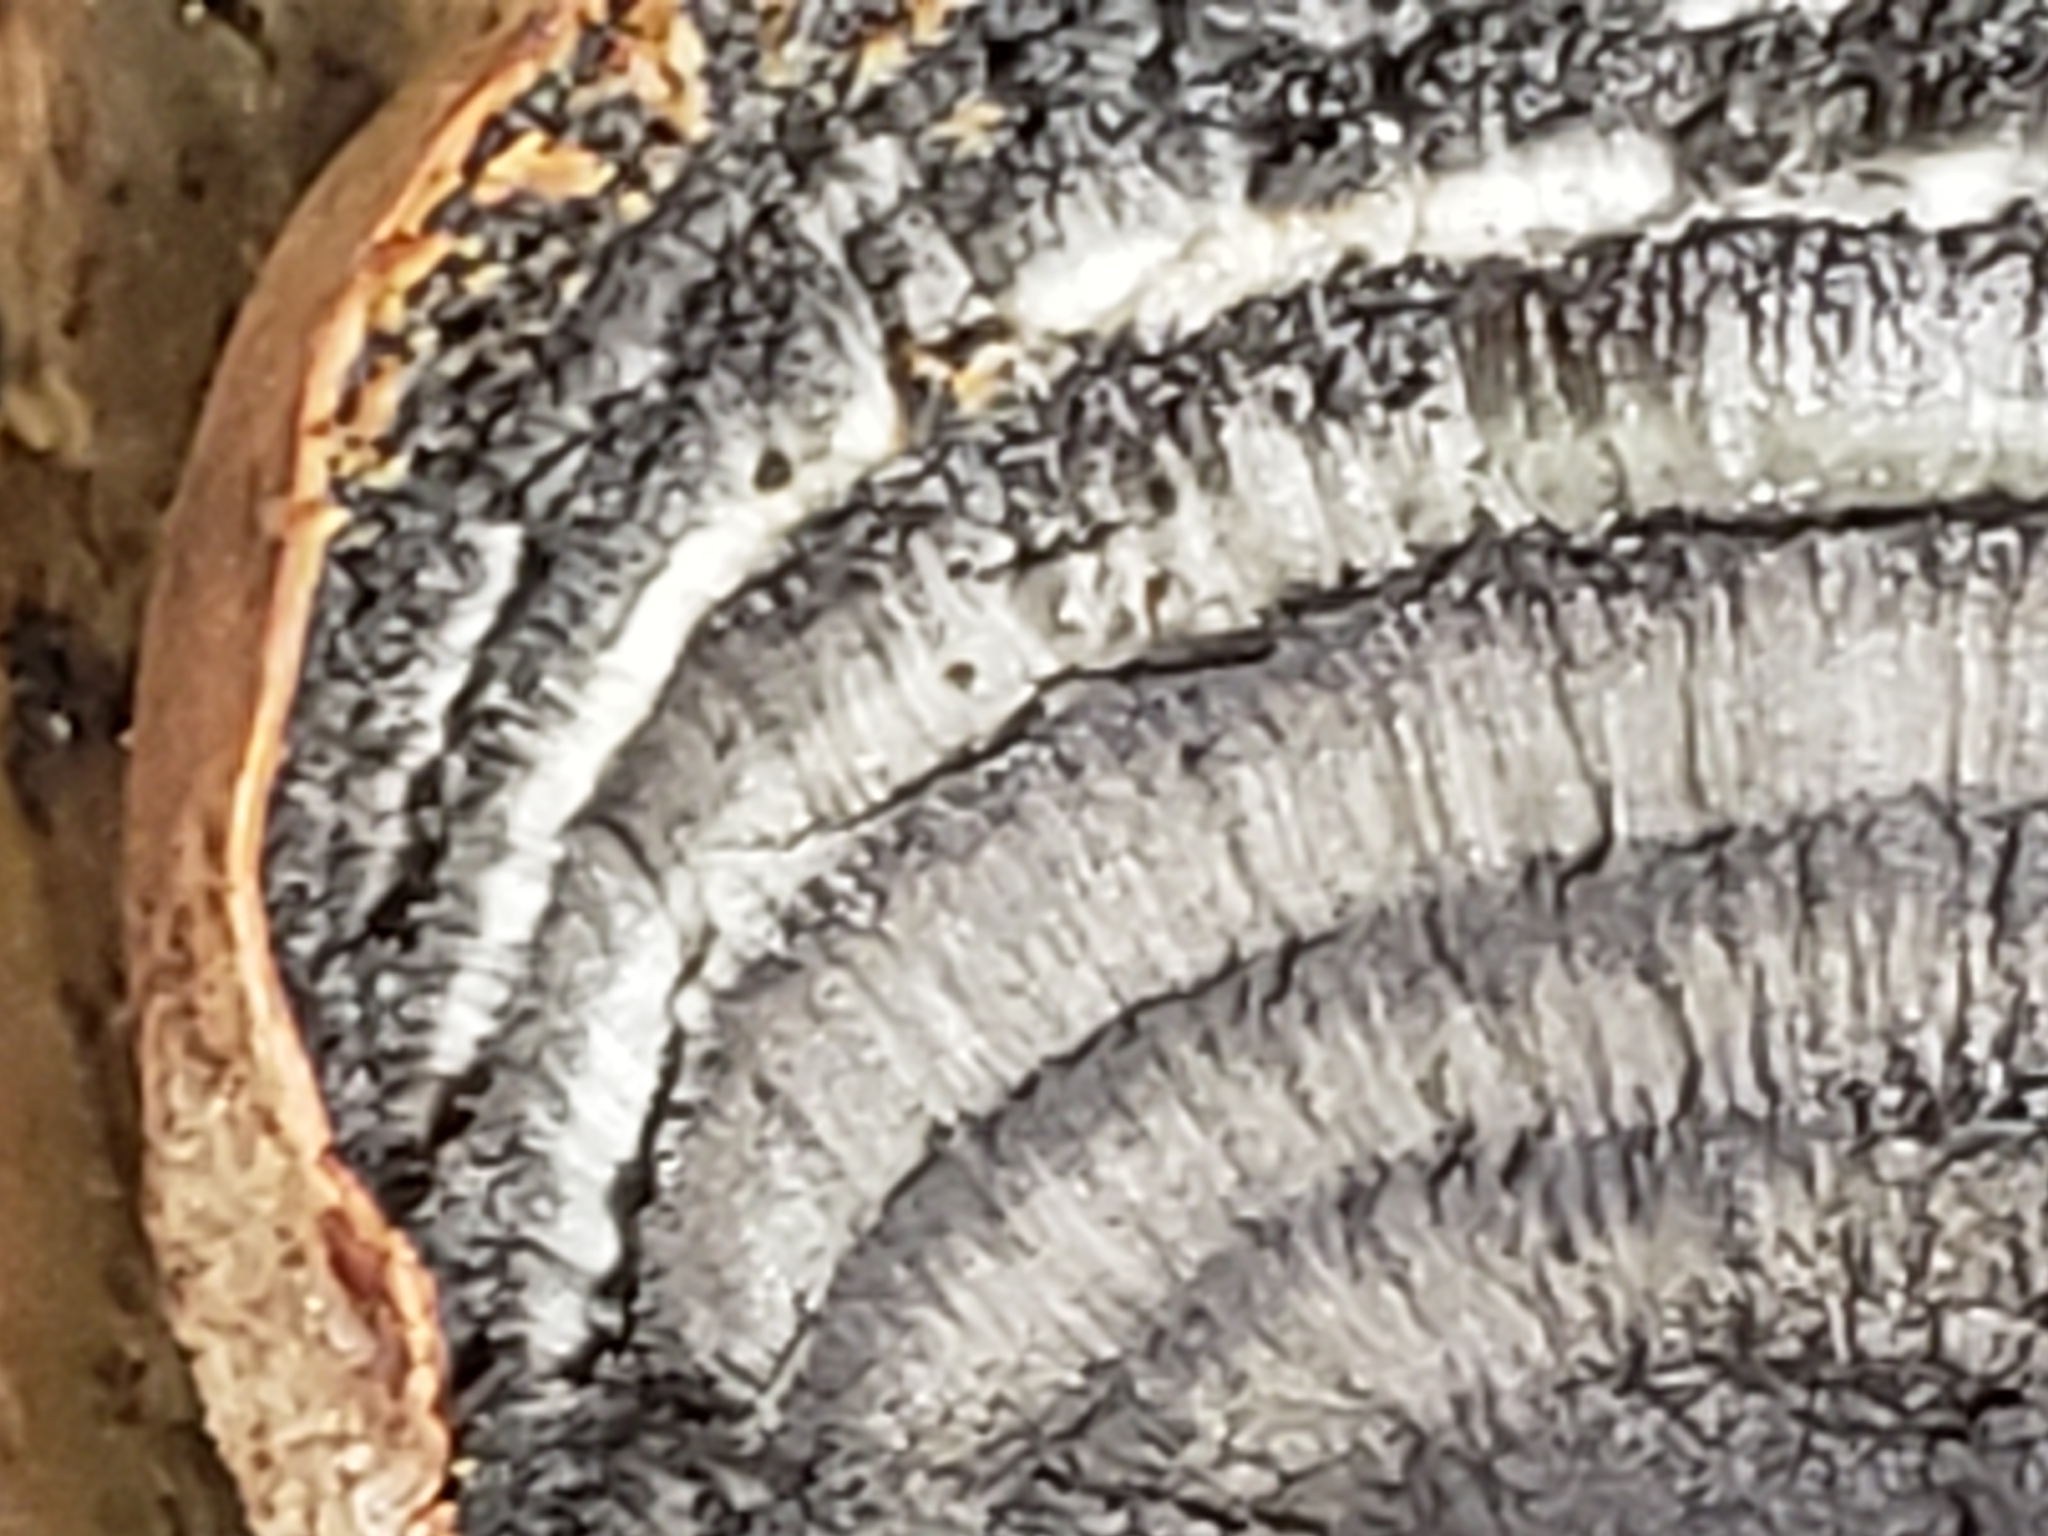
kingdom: Fungi
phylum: Ascomycota
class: Sordariomycetes
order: Xylariales
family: Hypoxylaceae
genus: Daldinia
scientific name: Daldinia childiae
